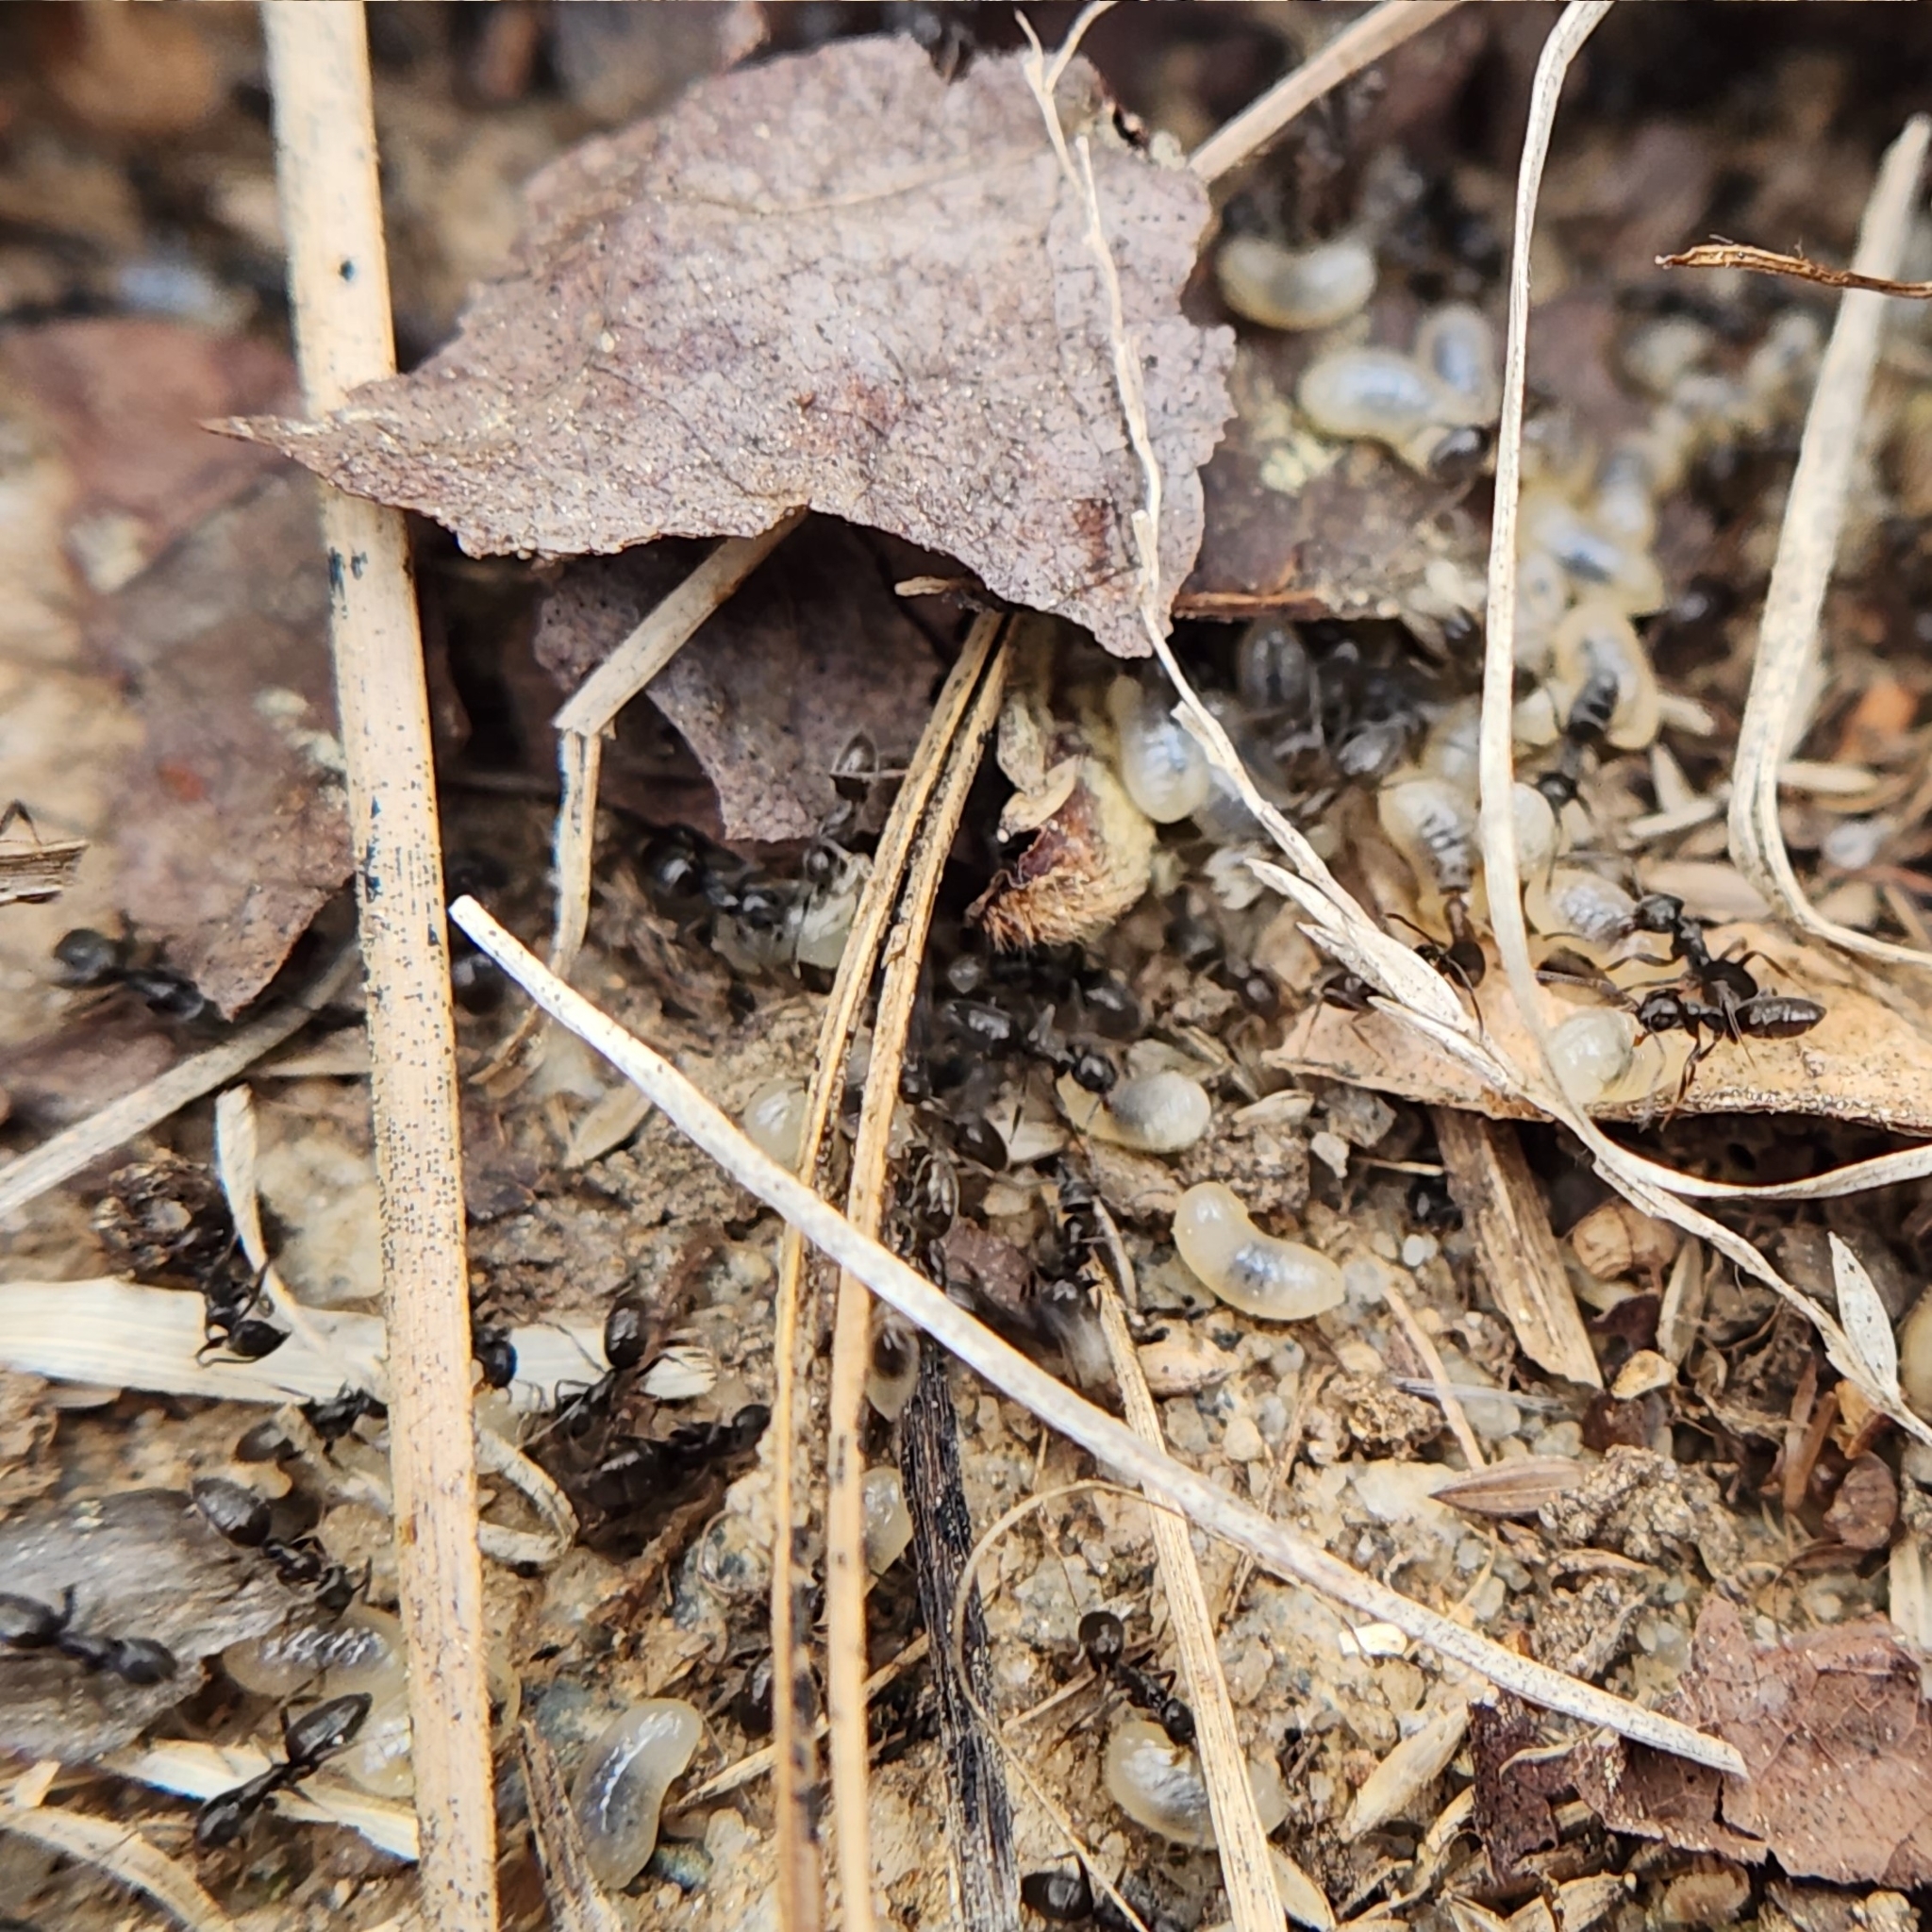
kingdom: Animalia
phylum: Arthropoda
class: Insecta
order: Hymenoptera
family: Formicidae
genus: Tapinoma
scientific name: Tapinoma sessile
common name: Odorous house ant
